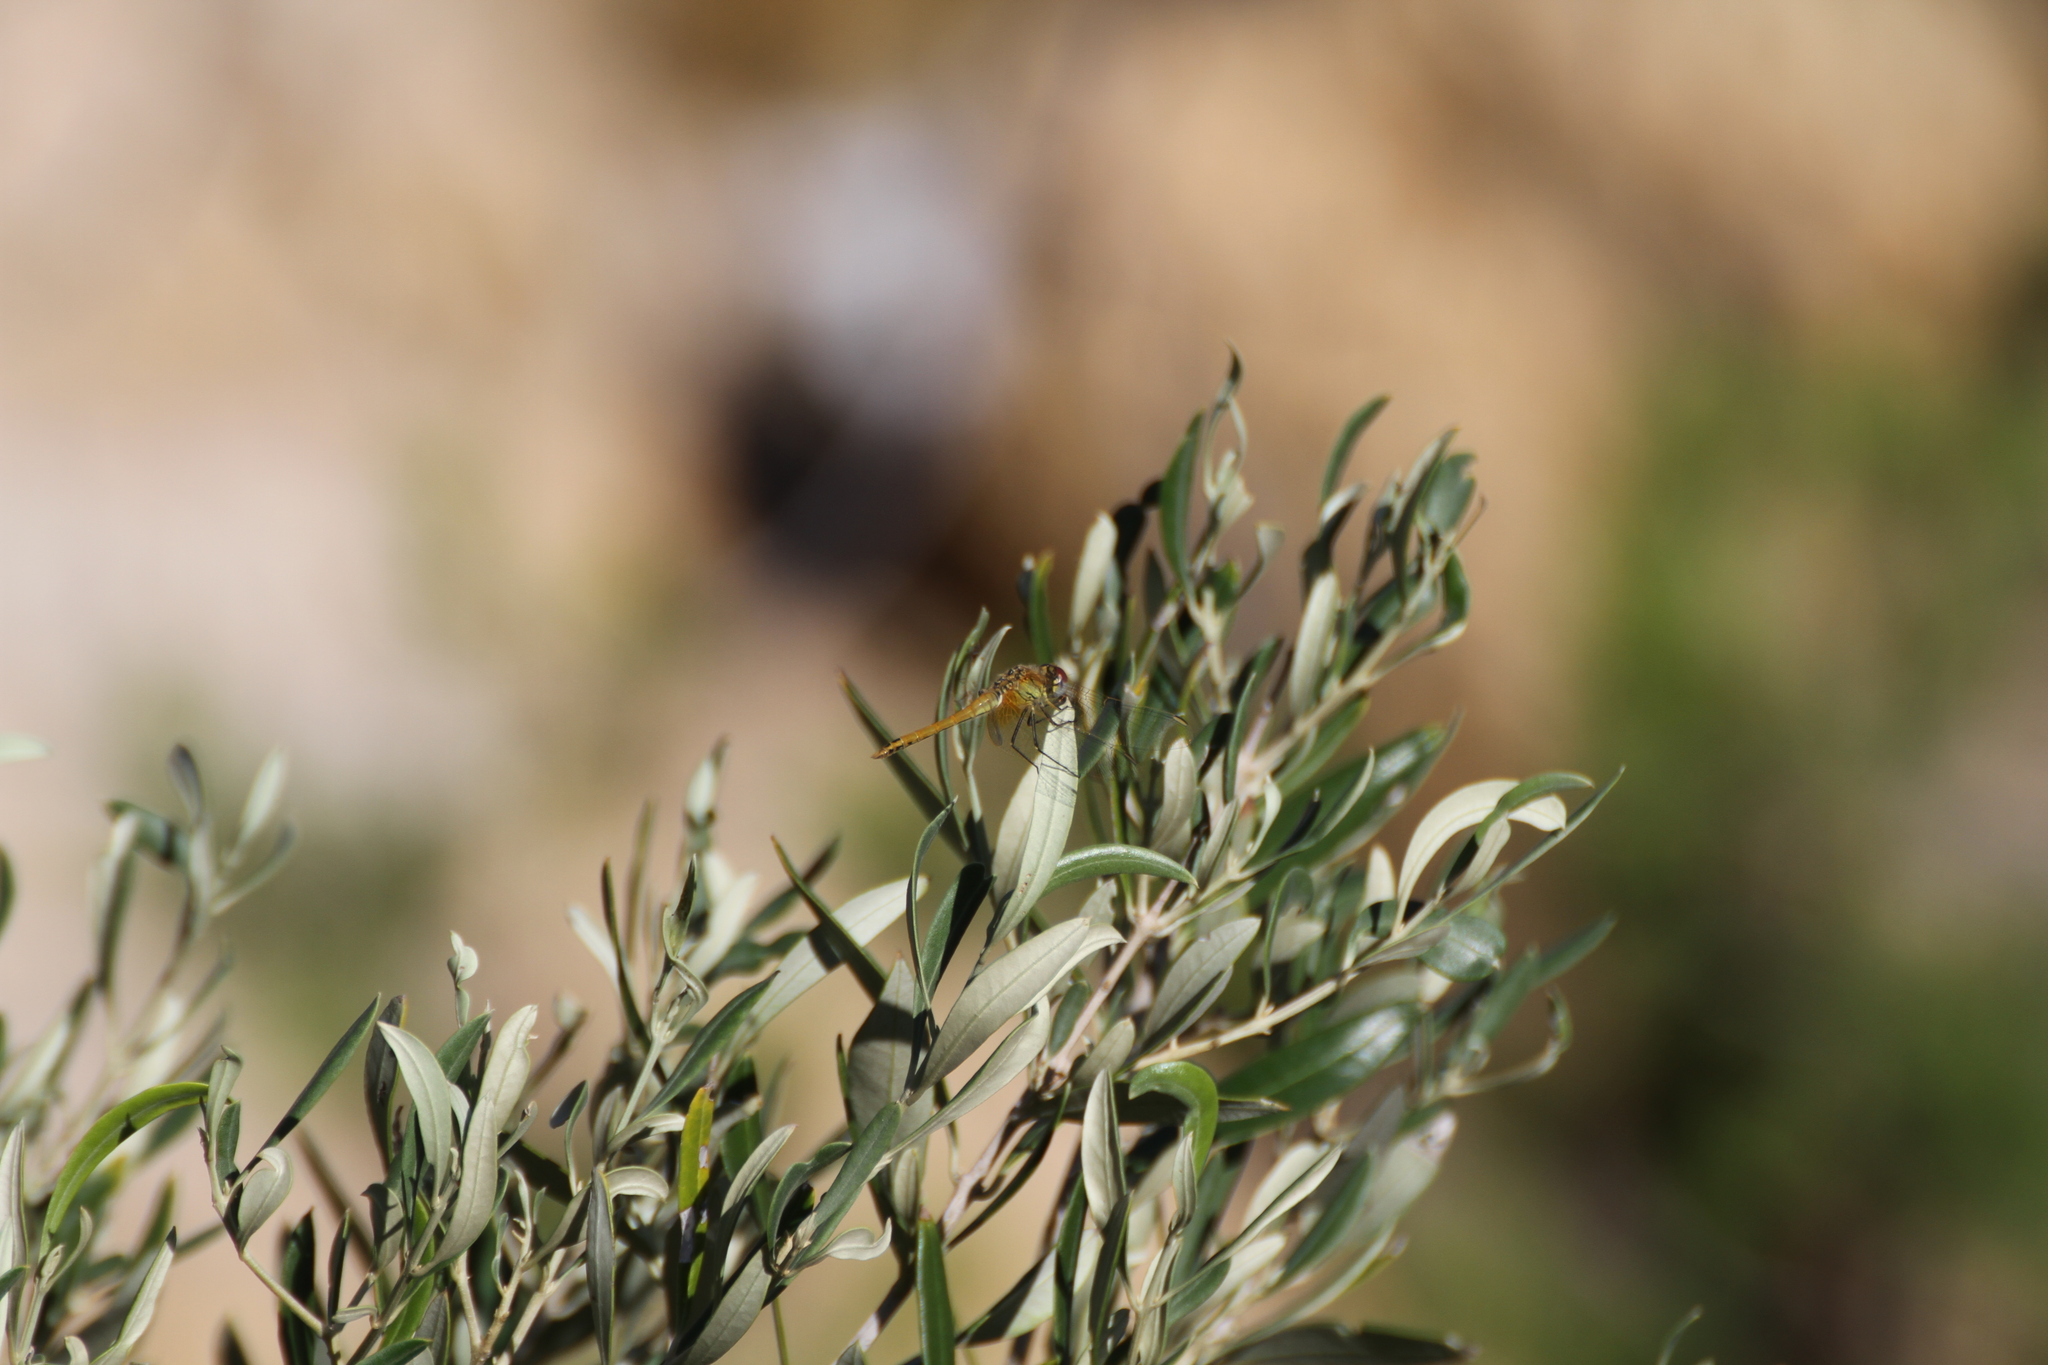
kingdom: Animalia
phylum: Arthropoda
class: Insecta
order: Odonata
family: Libellulidae
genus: Sympetrum
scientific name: Sympetrum fonscolombii
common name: Red-veined darter
